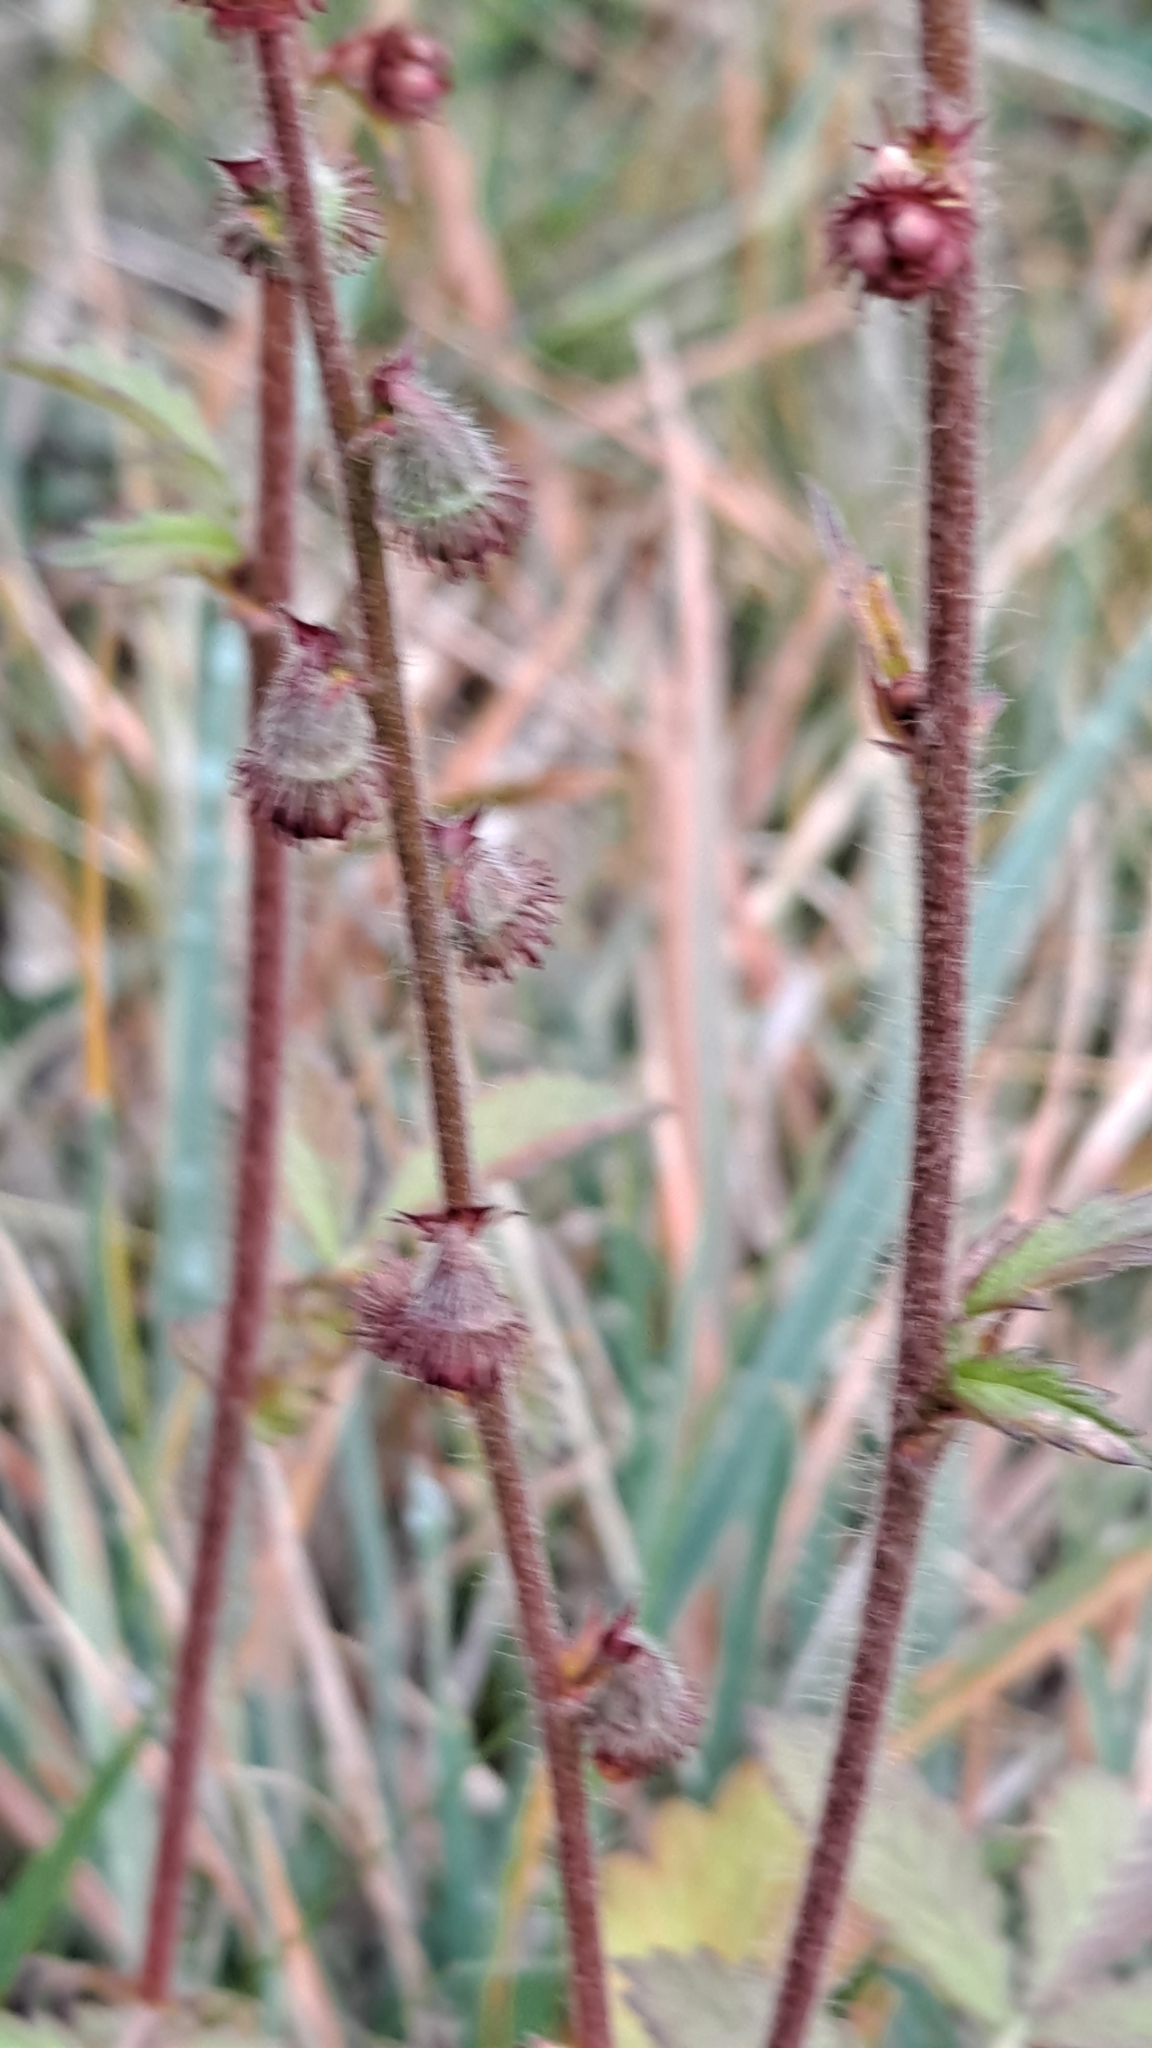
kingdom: Plantae
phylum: Tracheophyta
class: Magnoliopsida
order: Rosales
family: Rosaceae
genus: Agrimonia
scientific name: Agrimonia eupatoria
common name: Agrimony
